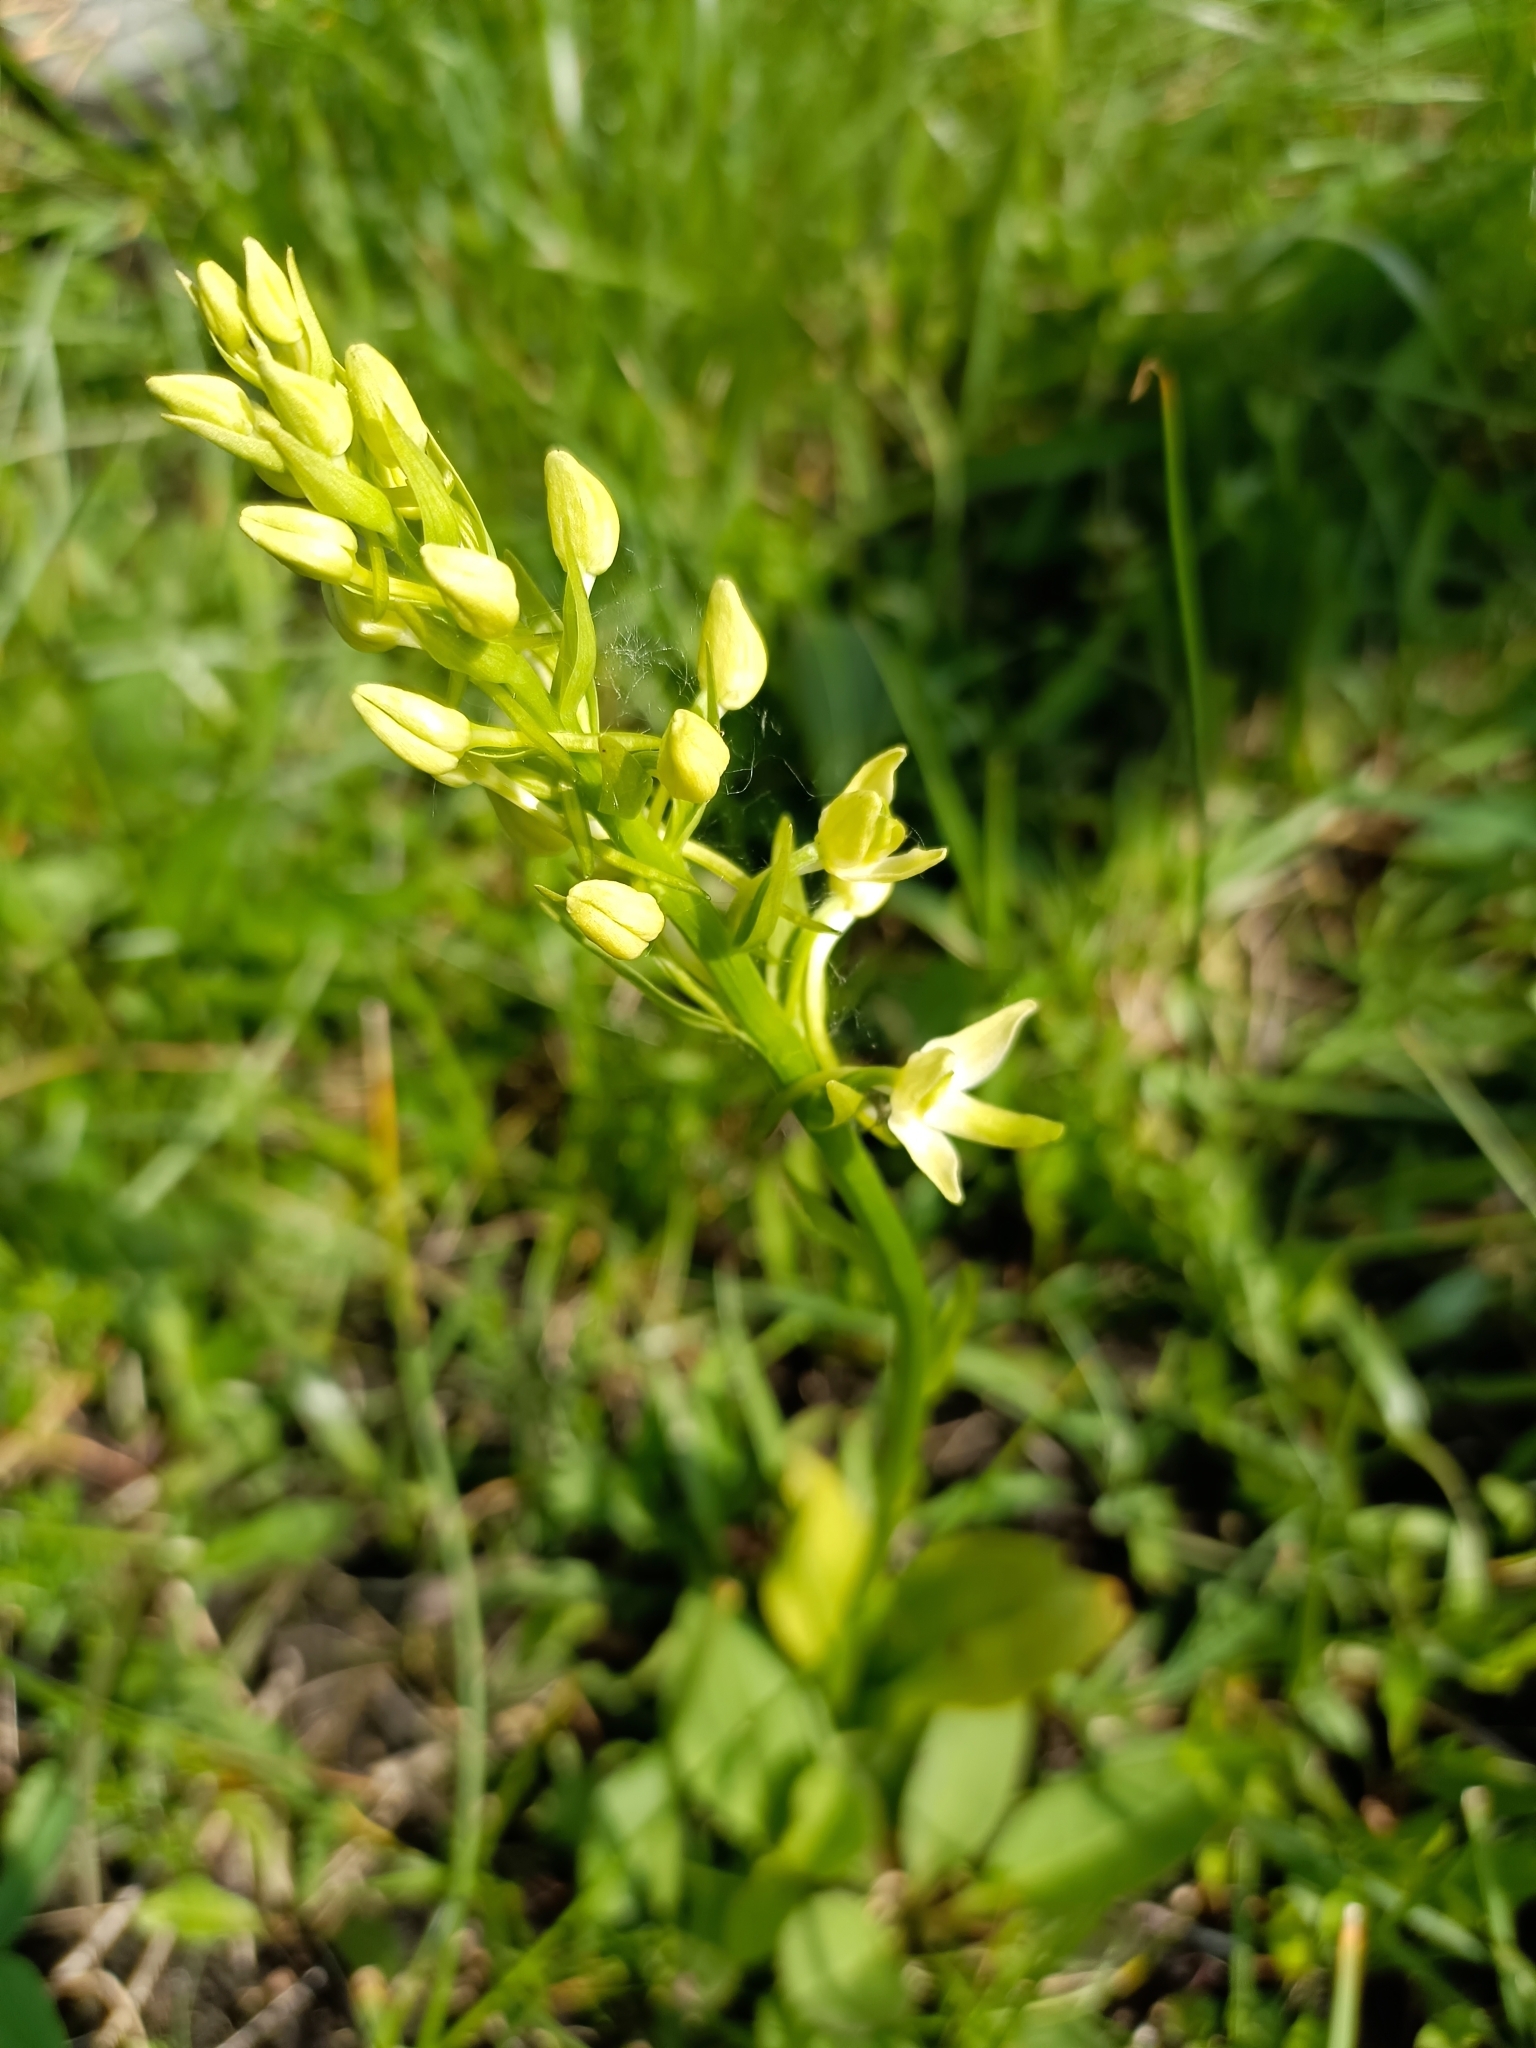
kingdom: Plantae
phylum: Tracheophyta
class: Liliopsida
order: Asparagales
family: Orchidaceae
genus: Platanthera
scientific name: Platanthera chlorantha
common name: Greater butterfly-orchid
